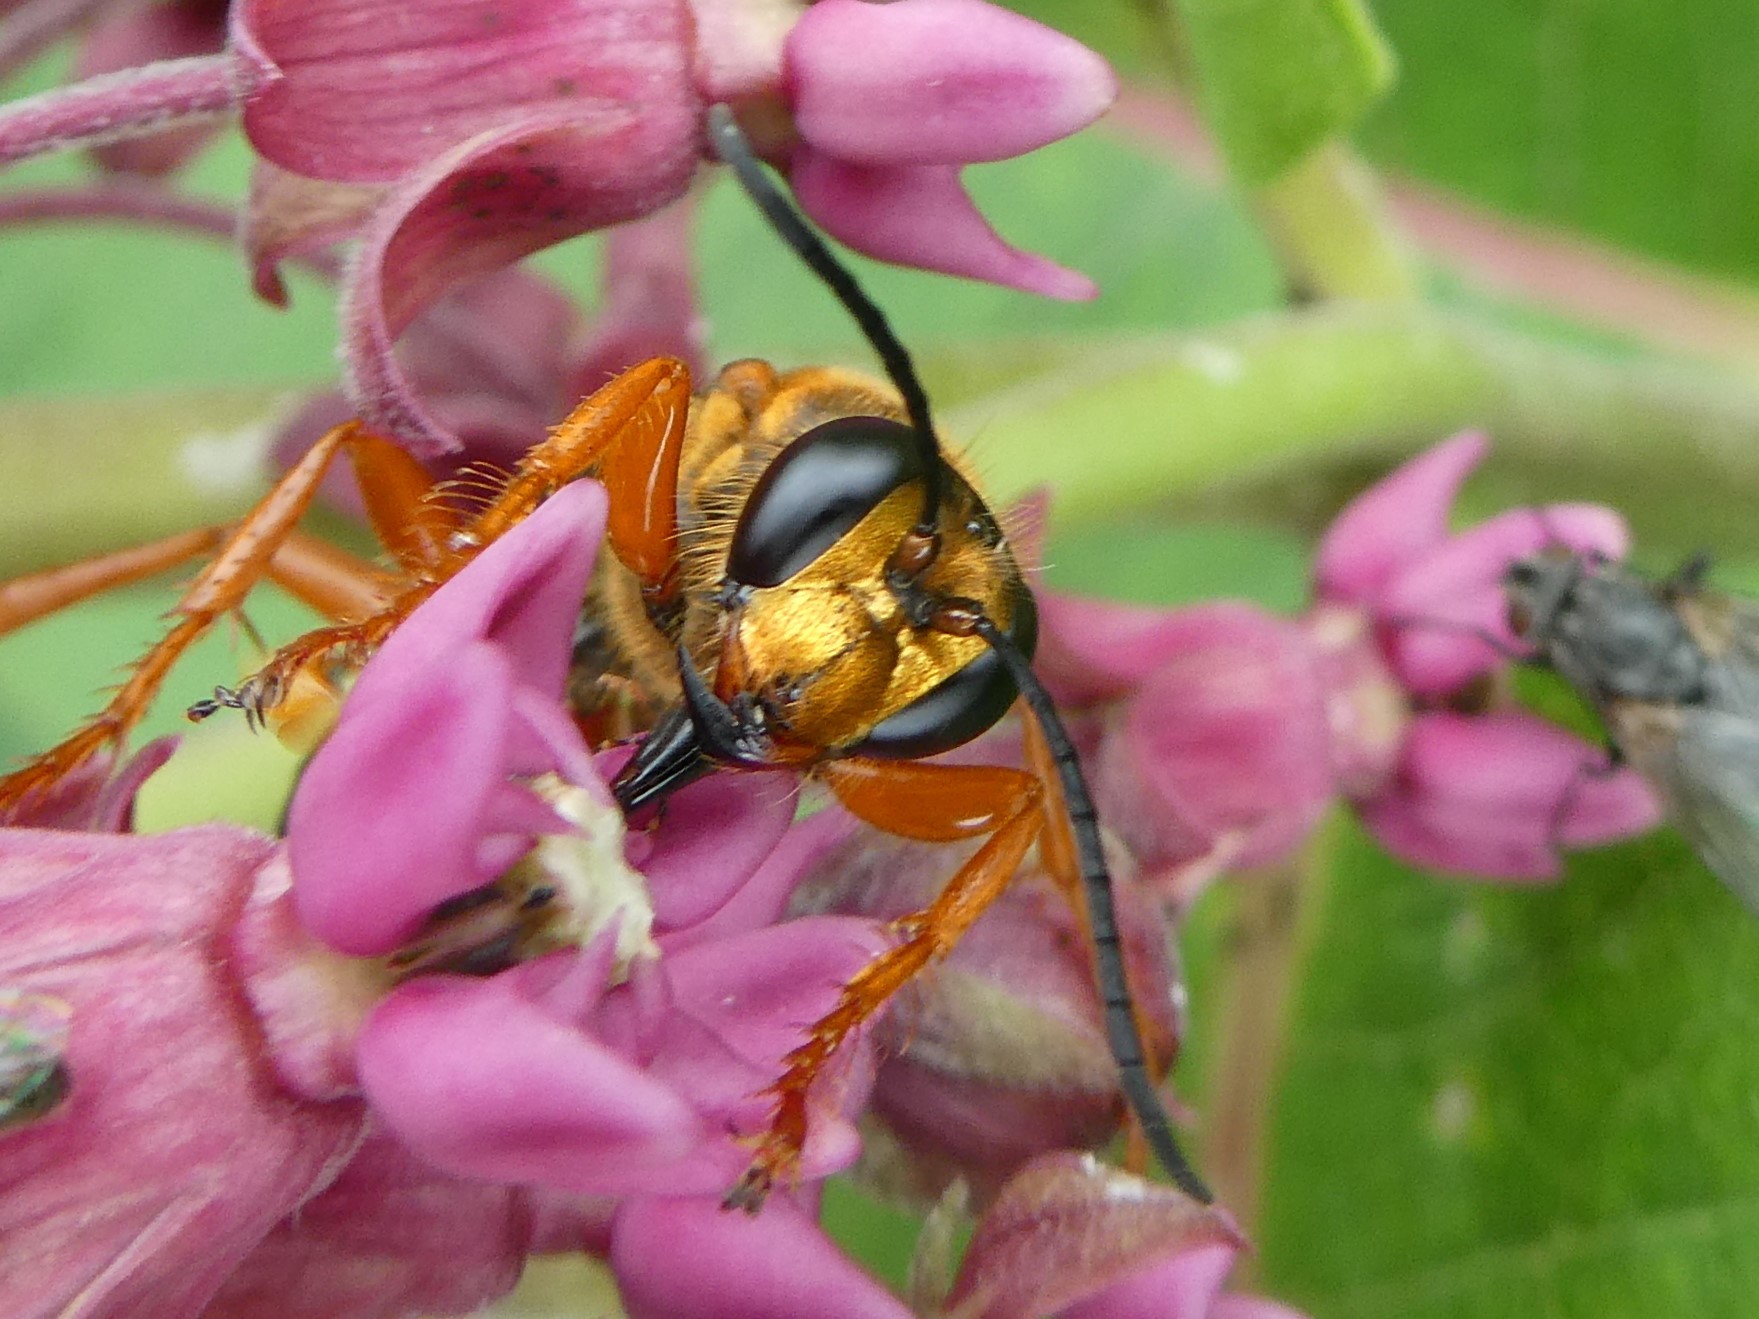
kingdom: Animalia
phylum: Arthropoda
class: Insecta
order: Hymenoptera
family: Sphecidae
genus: Sphex
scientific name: Sphex ichneumoneus
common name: Great golden digger wasp
